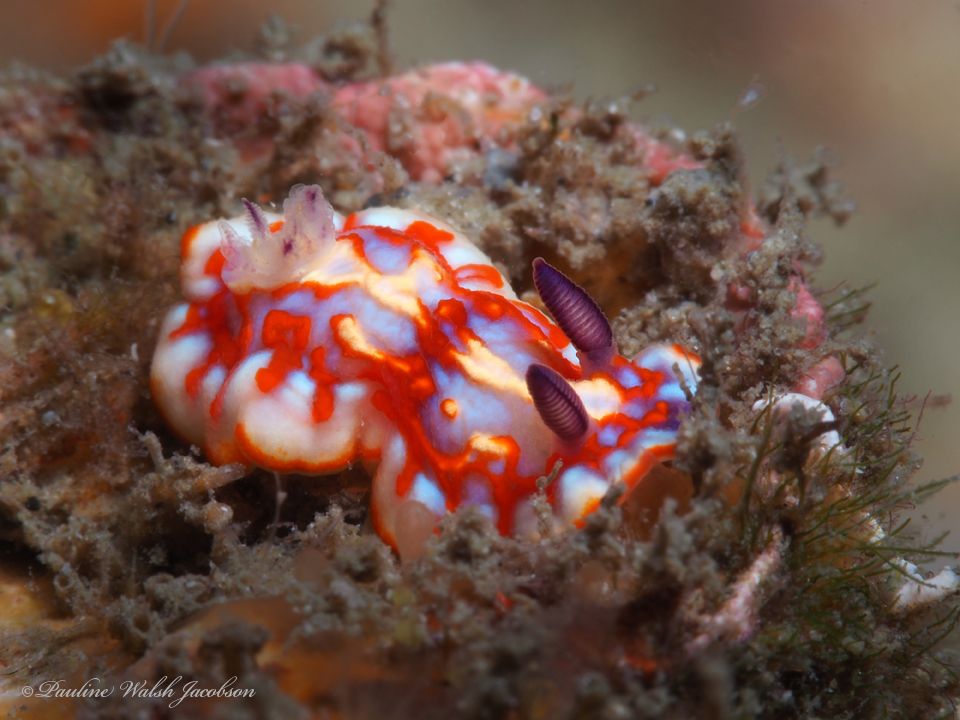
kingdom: Animalia
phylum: Mollusca
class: Gastropoda
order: Nudibranchia
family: Chromodorididae
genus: Felimida
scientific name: Felimida clenchi
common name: Bill clench's doris
